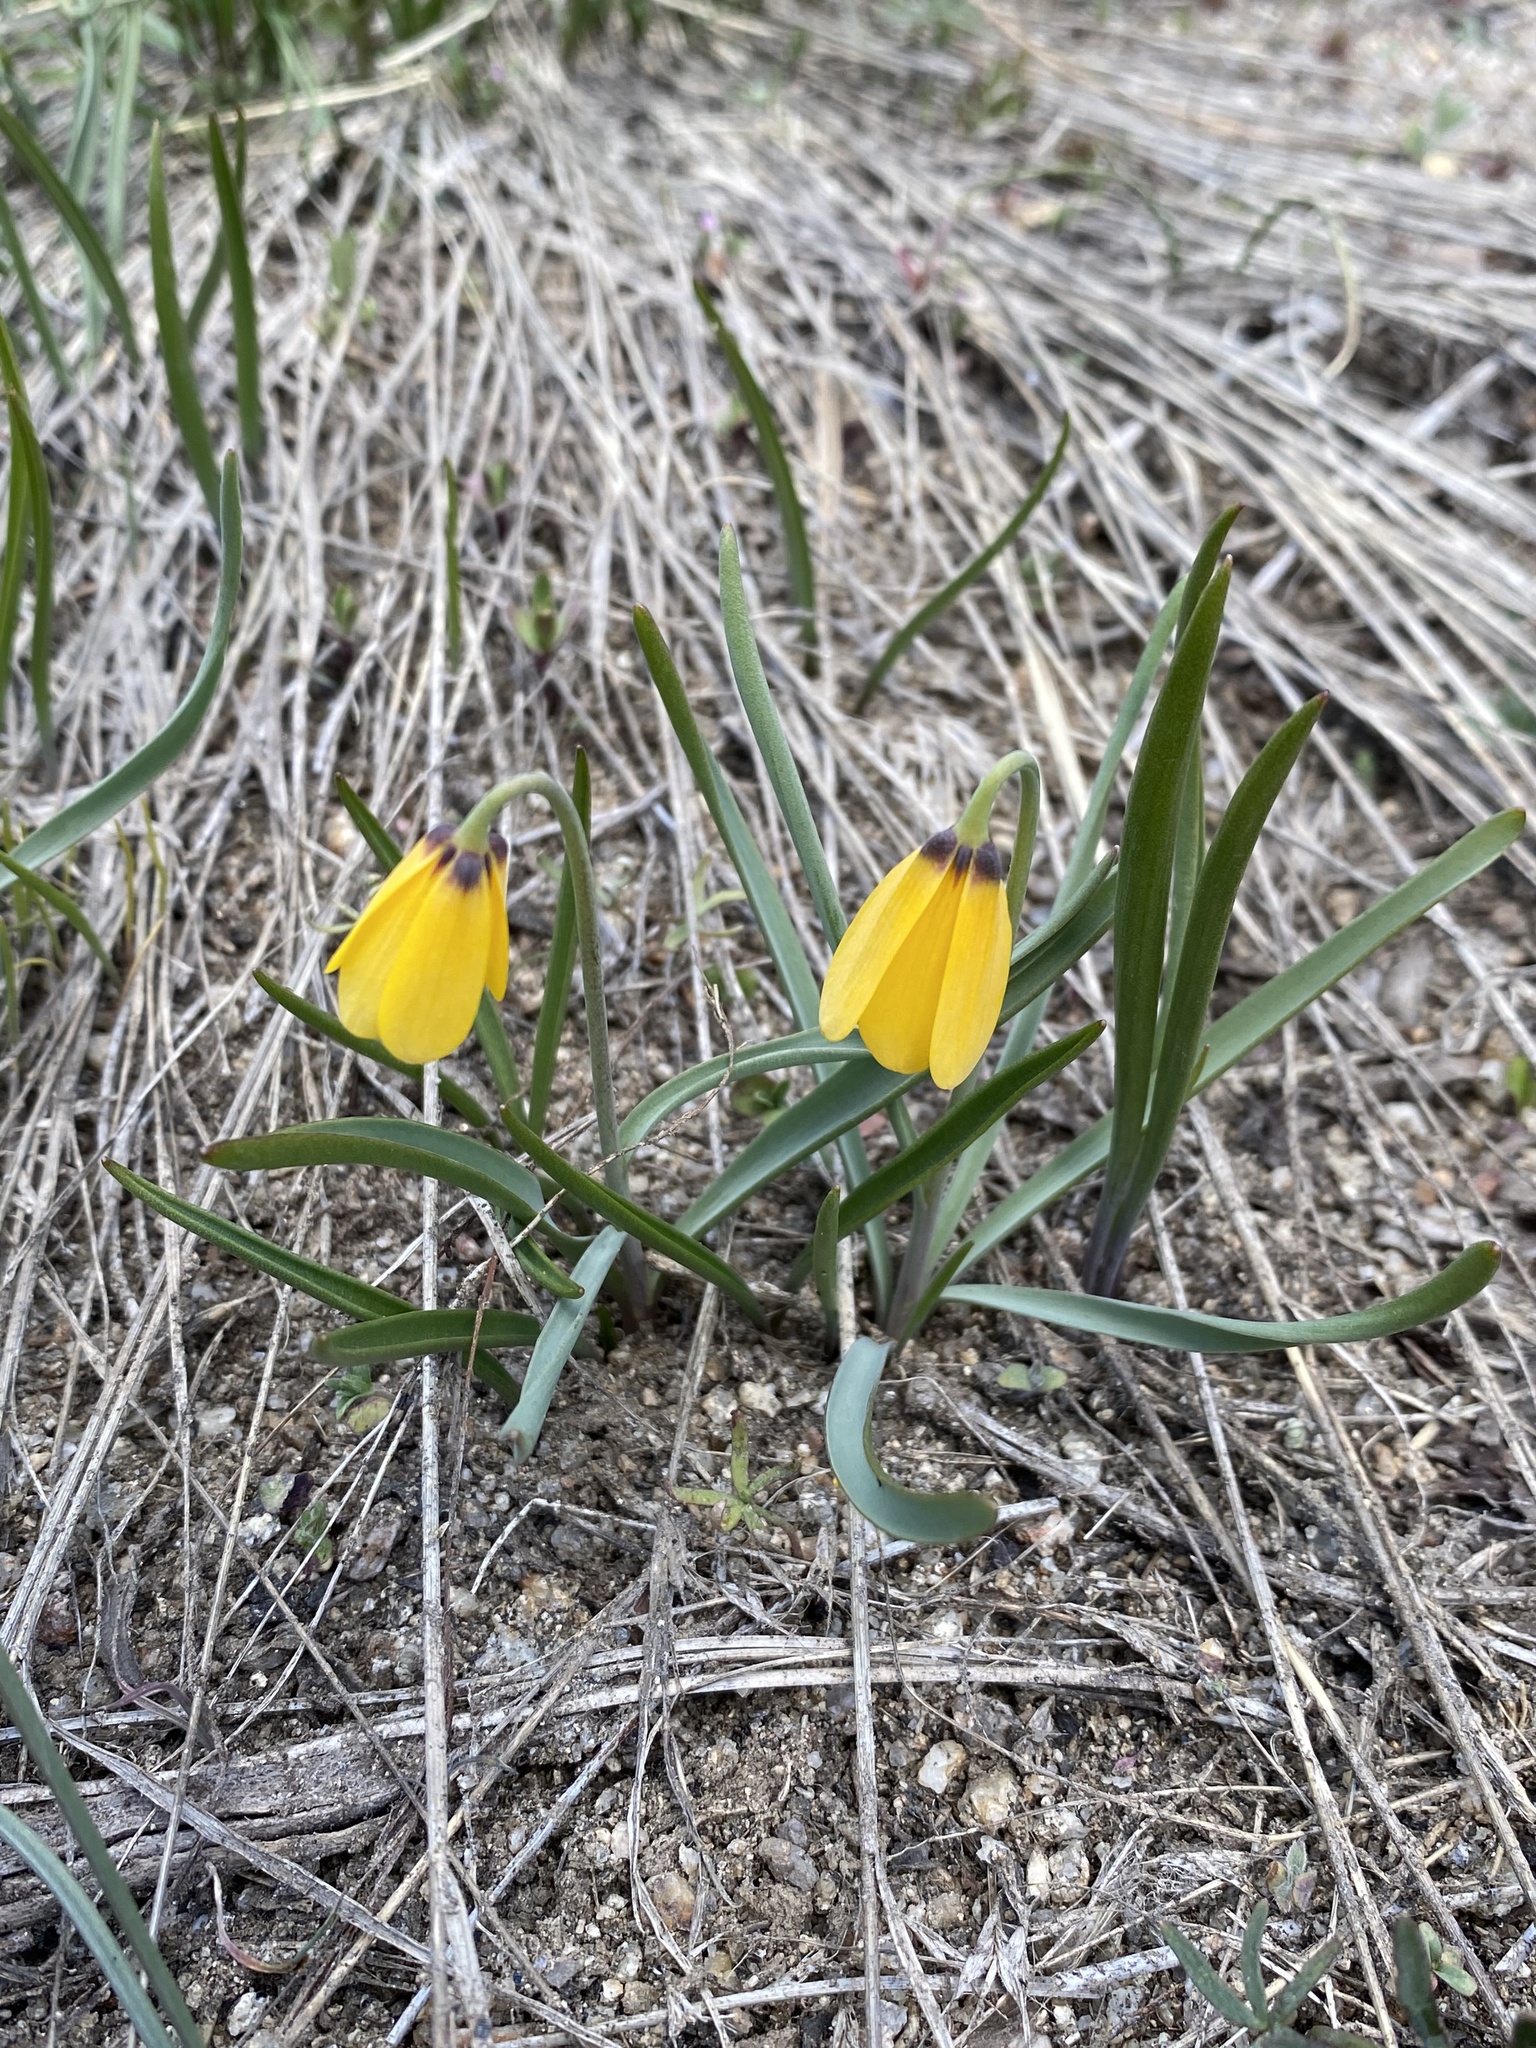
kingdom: Plantae
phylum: Tracheophyta
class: Liliopsida
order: Liliales
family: Liliaceae
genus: Fritillaria
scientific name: Fritillaria pudica
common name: Yellow fritillary
